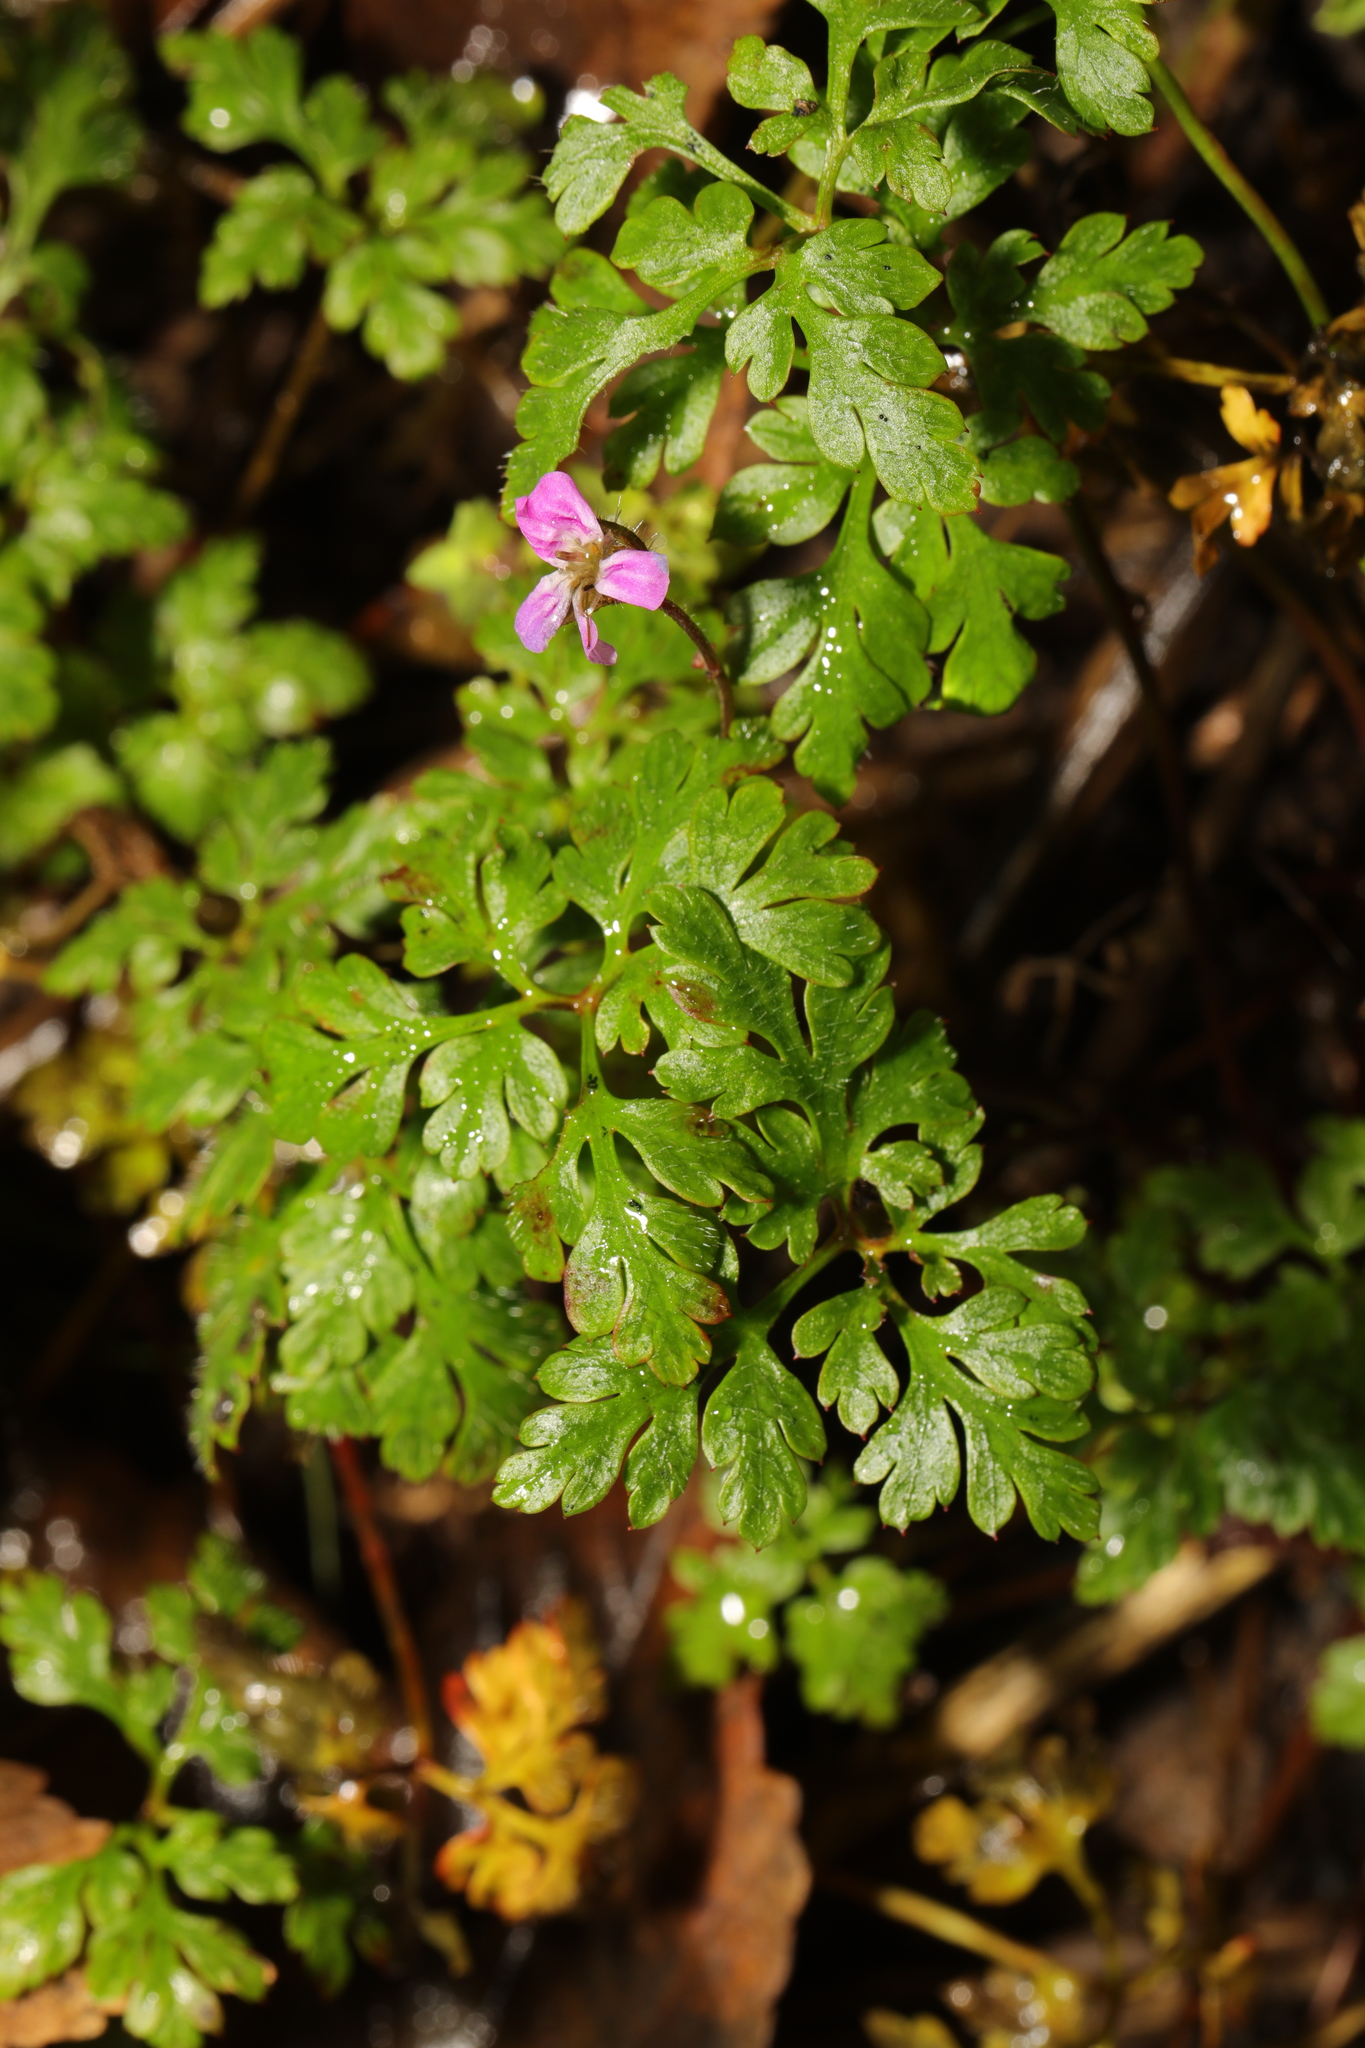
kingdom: Plantae
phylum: Tracheophyta
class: Magnoliopsida
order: Geraniales
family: Geraniaceae
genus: Geranium
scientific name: Geranium robertianum
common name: Herb-robert
